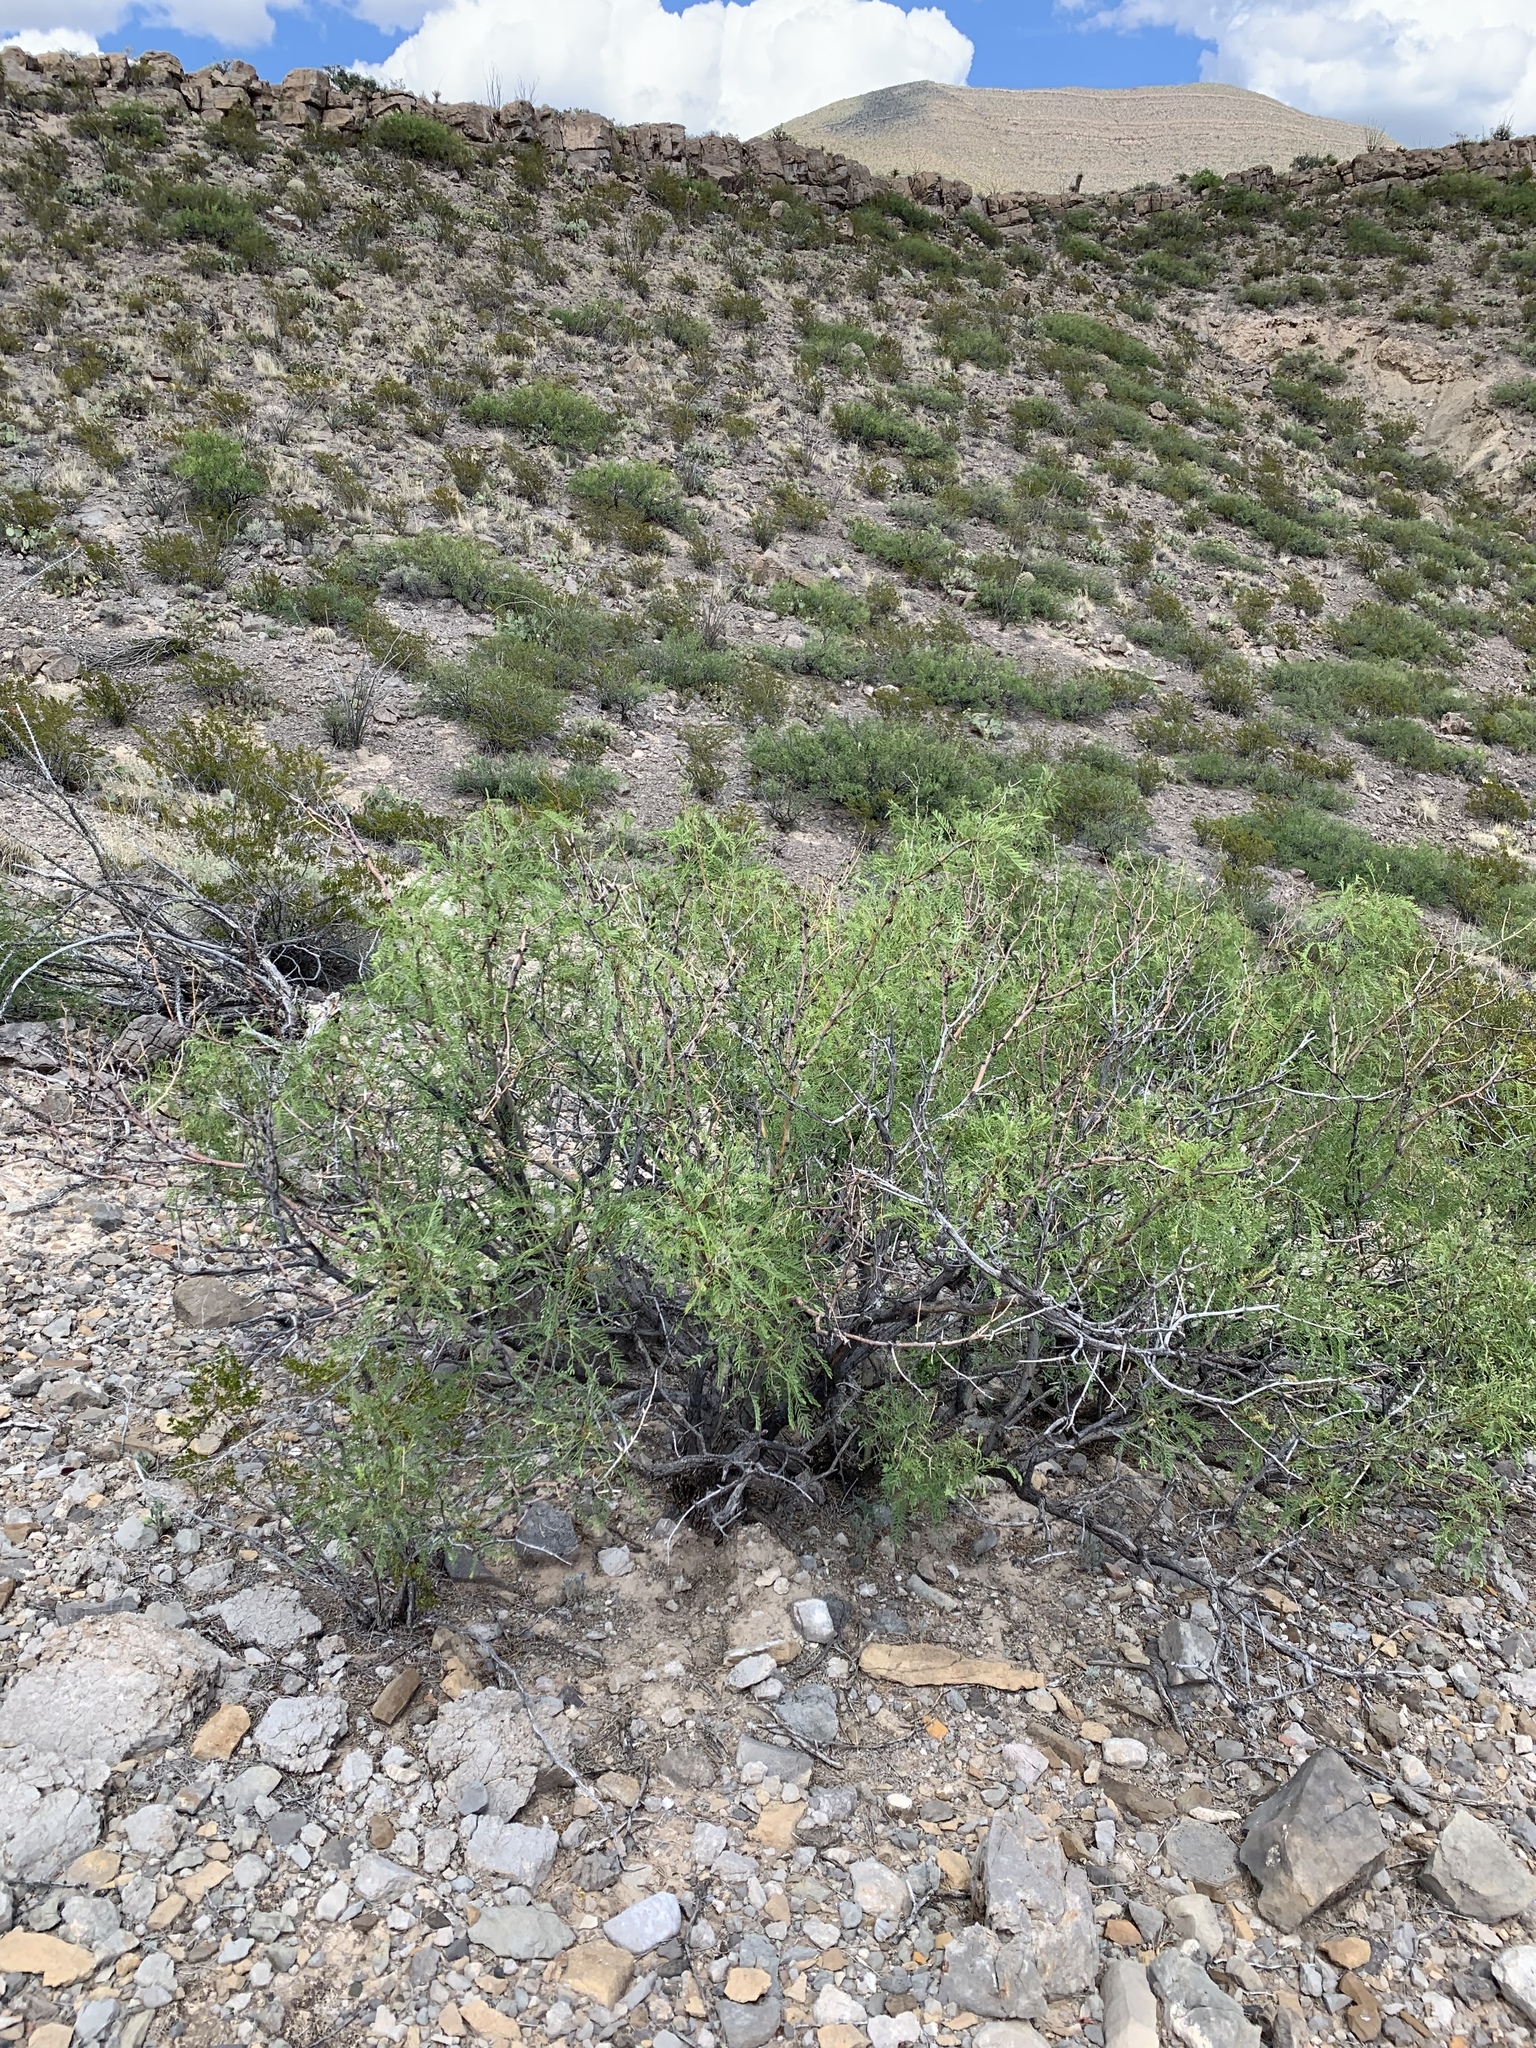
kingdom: Plantae
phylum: Tracheophyta
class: Magnoliopsida
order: Fabales
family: Fabaceae
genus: Prosopis
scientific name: Prosopis glandulosa
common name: Honey mesquite
